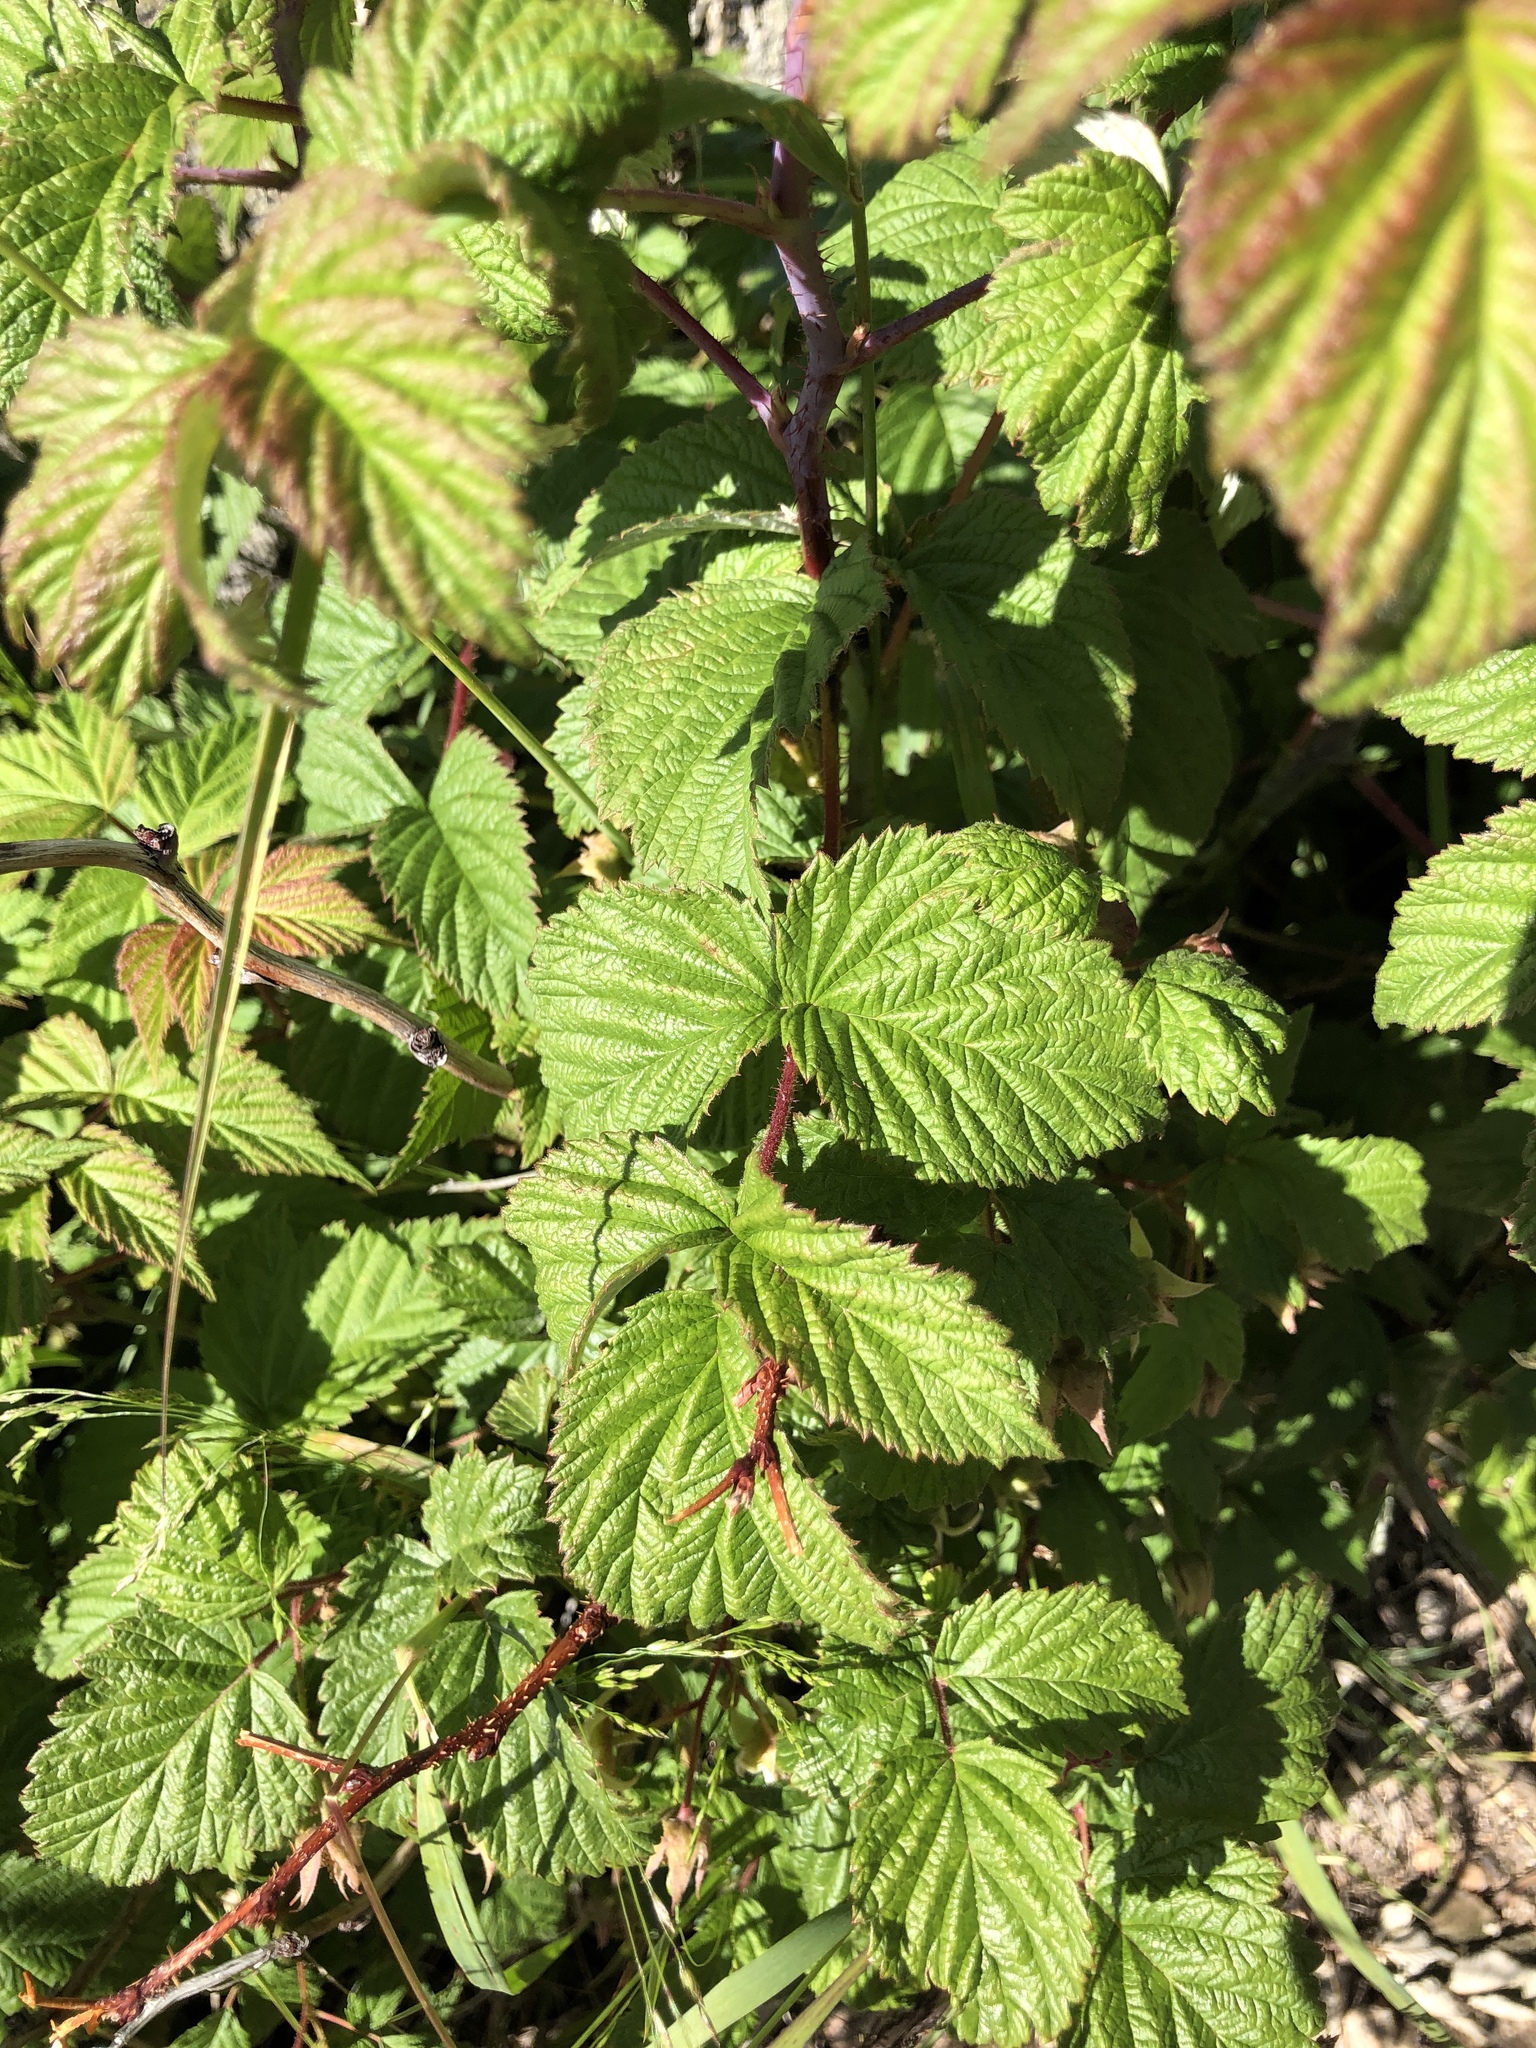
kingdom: Plantae
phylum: Tracheophyta
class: Magnoliopsida
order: Rosales
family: Rosaceae
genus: Rubus
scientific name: Rubus idaeus
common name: Raspberry
